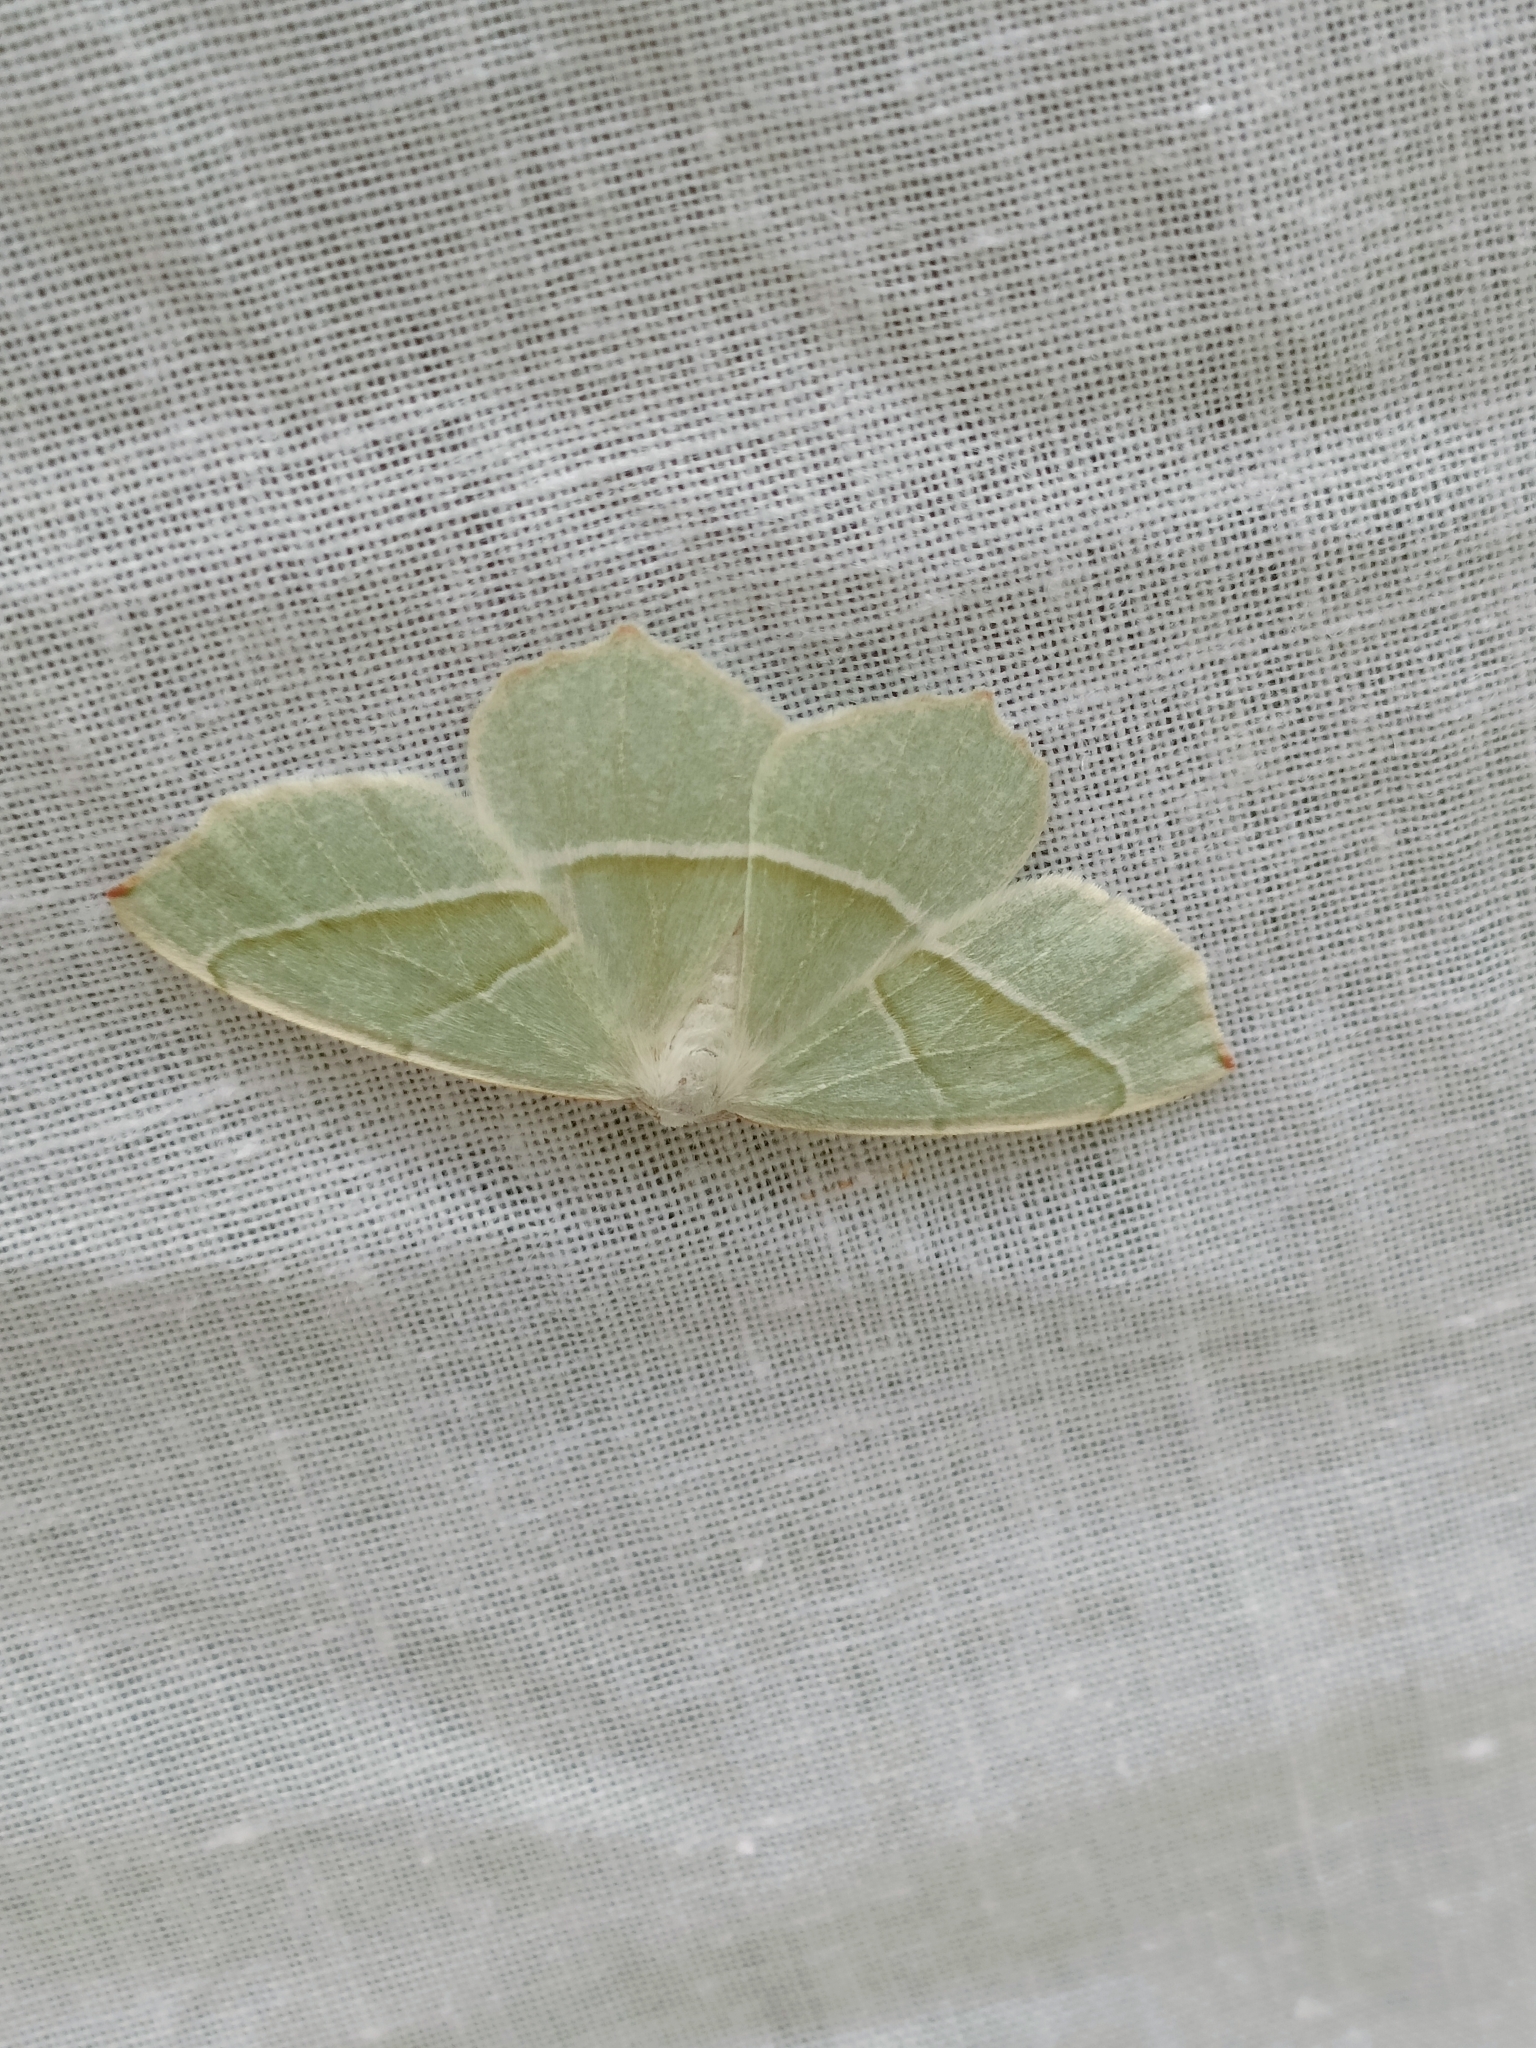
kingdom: Animalia
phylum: Arthropoda
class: Insecta
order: Lepidoptera
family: Geometridae
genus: Campaea
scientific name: Campaea margaritaria
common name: Light emerald
